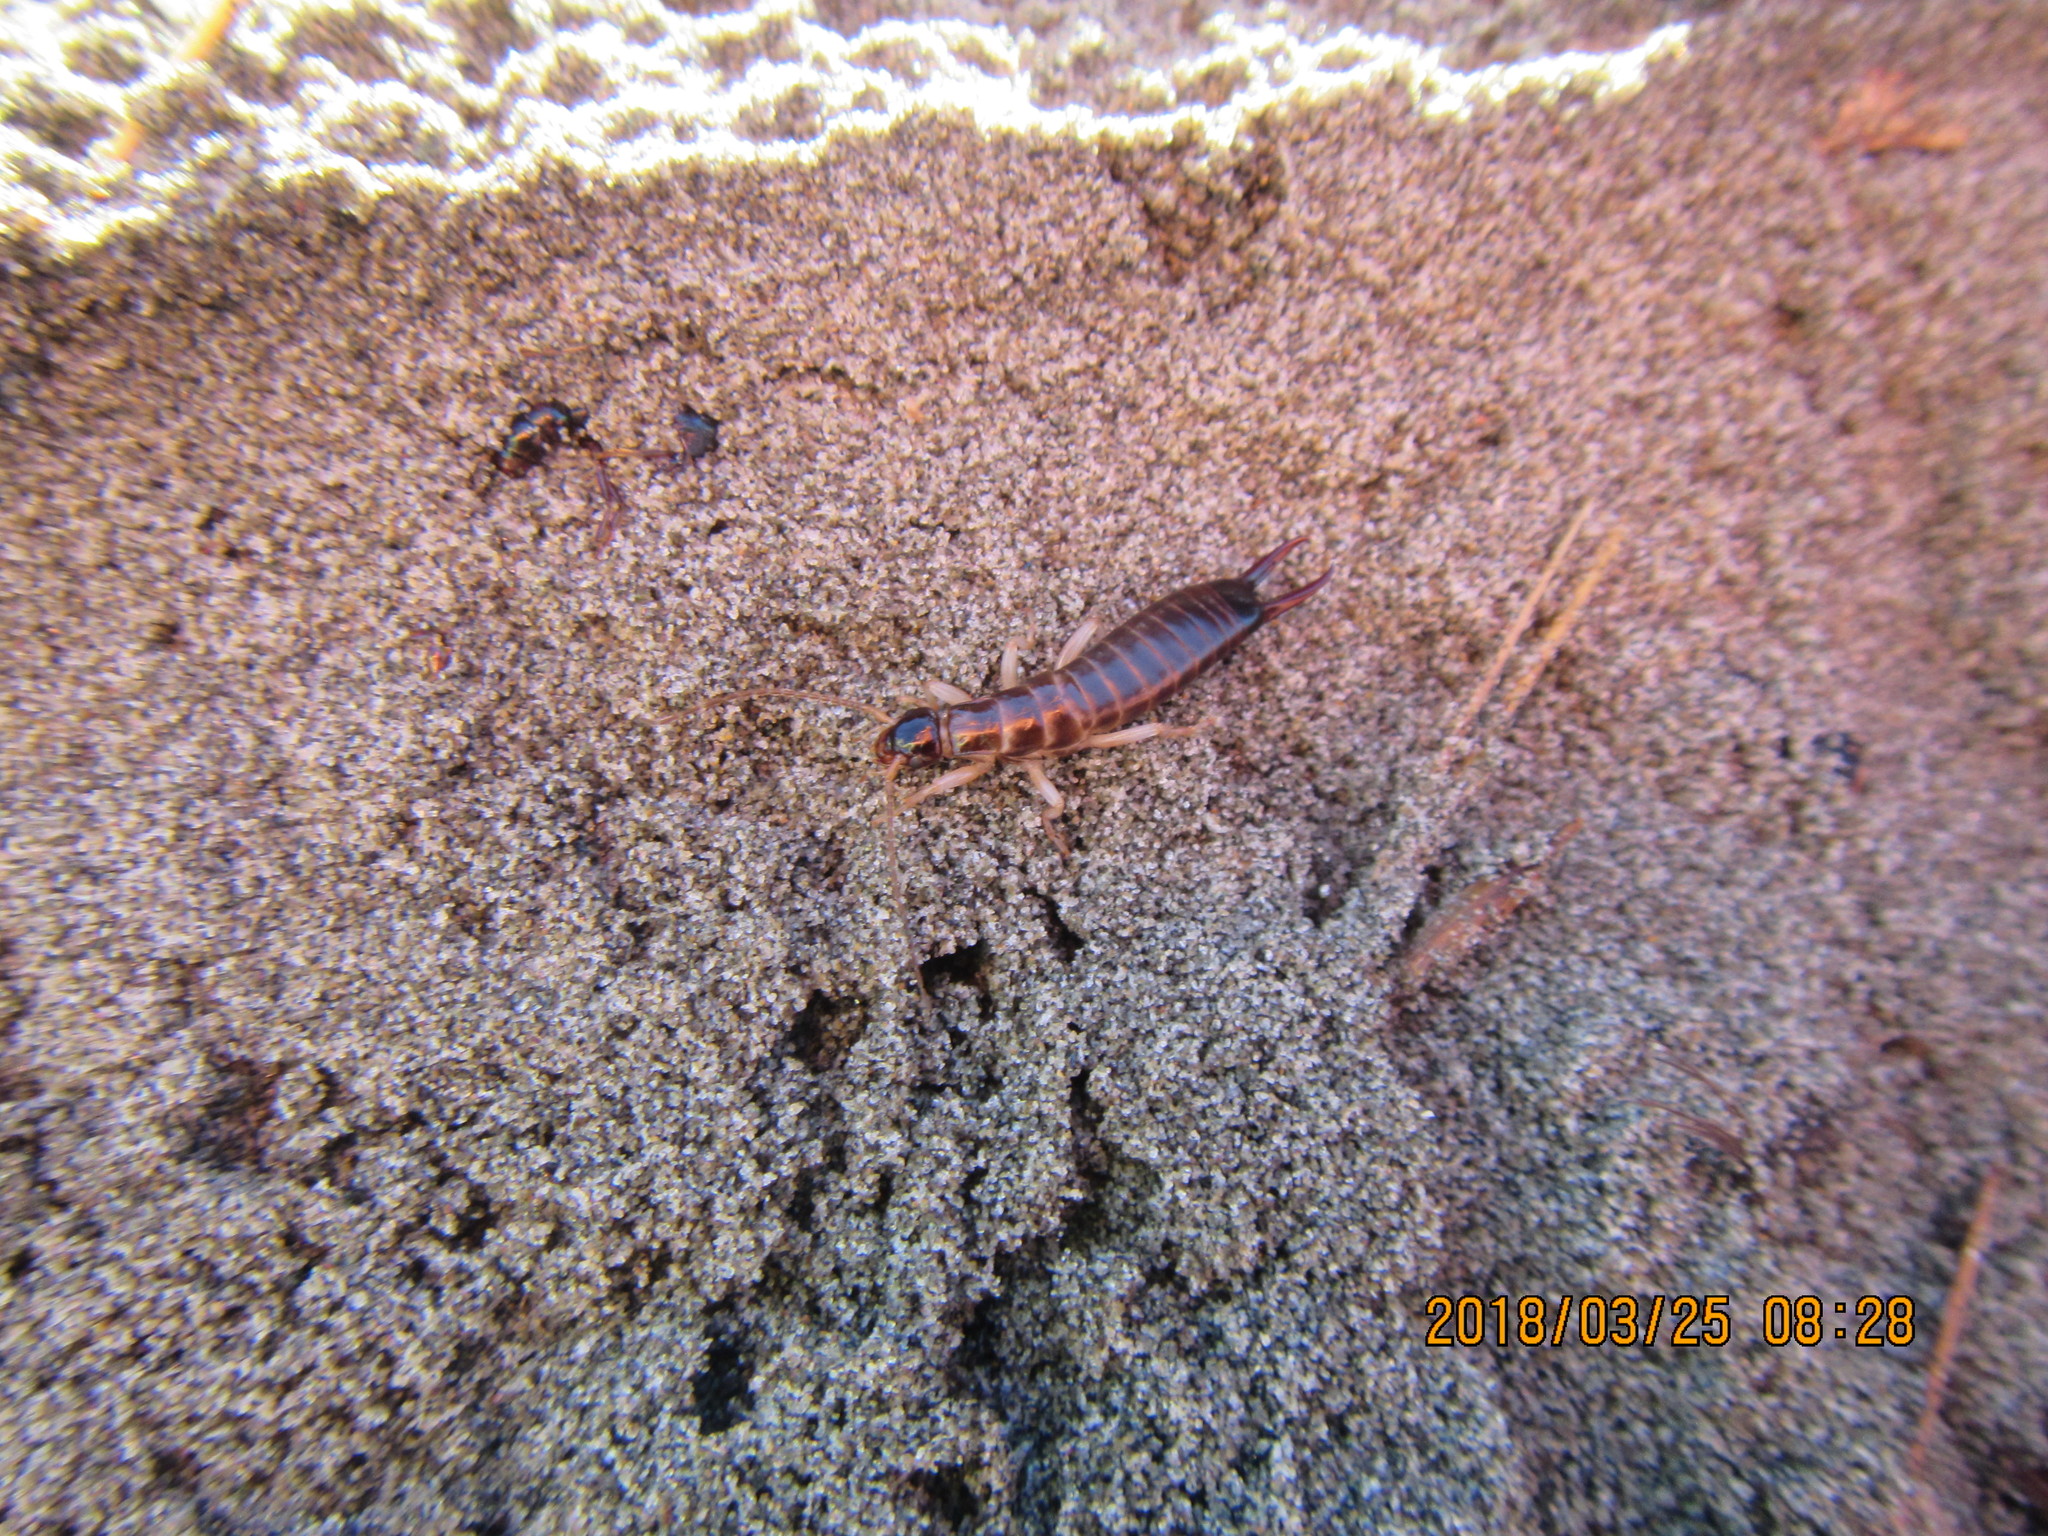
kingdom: Animalia
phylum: Arthropoda
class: Insecta
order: Dermaptera
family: Anisolabididae
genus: Anisolabis
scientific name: Anisolabis littorea
